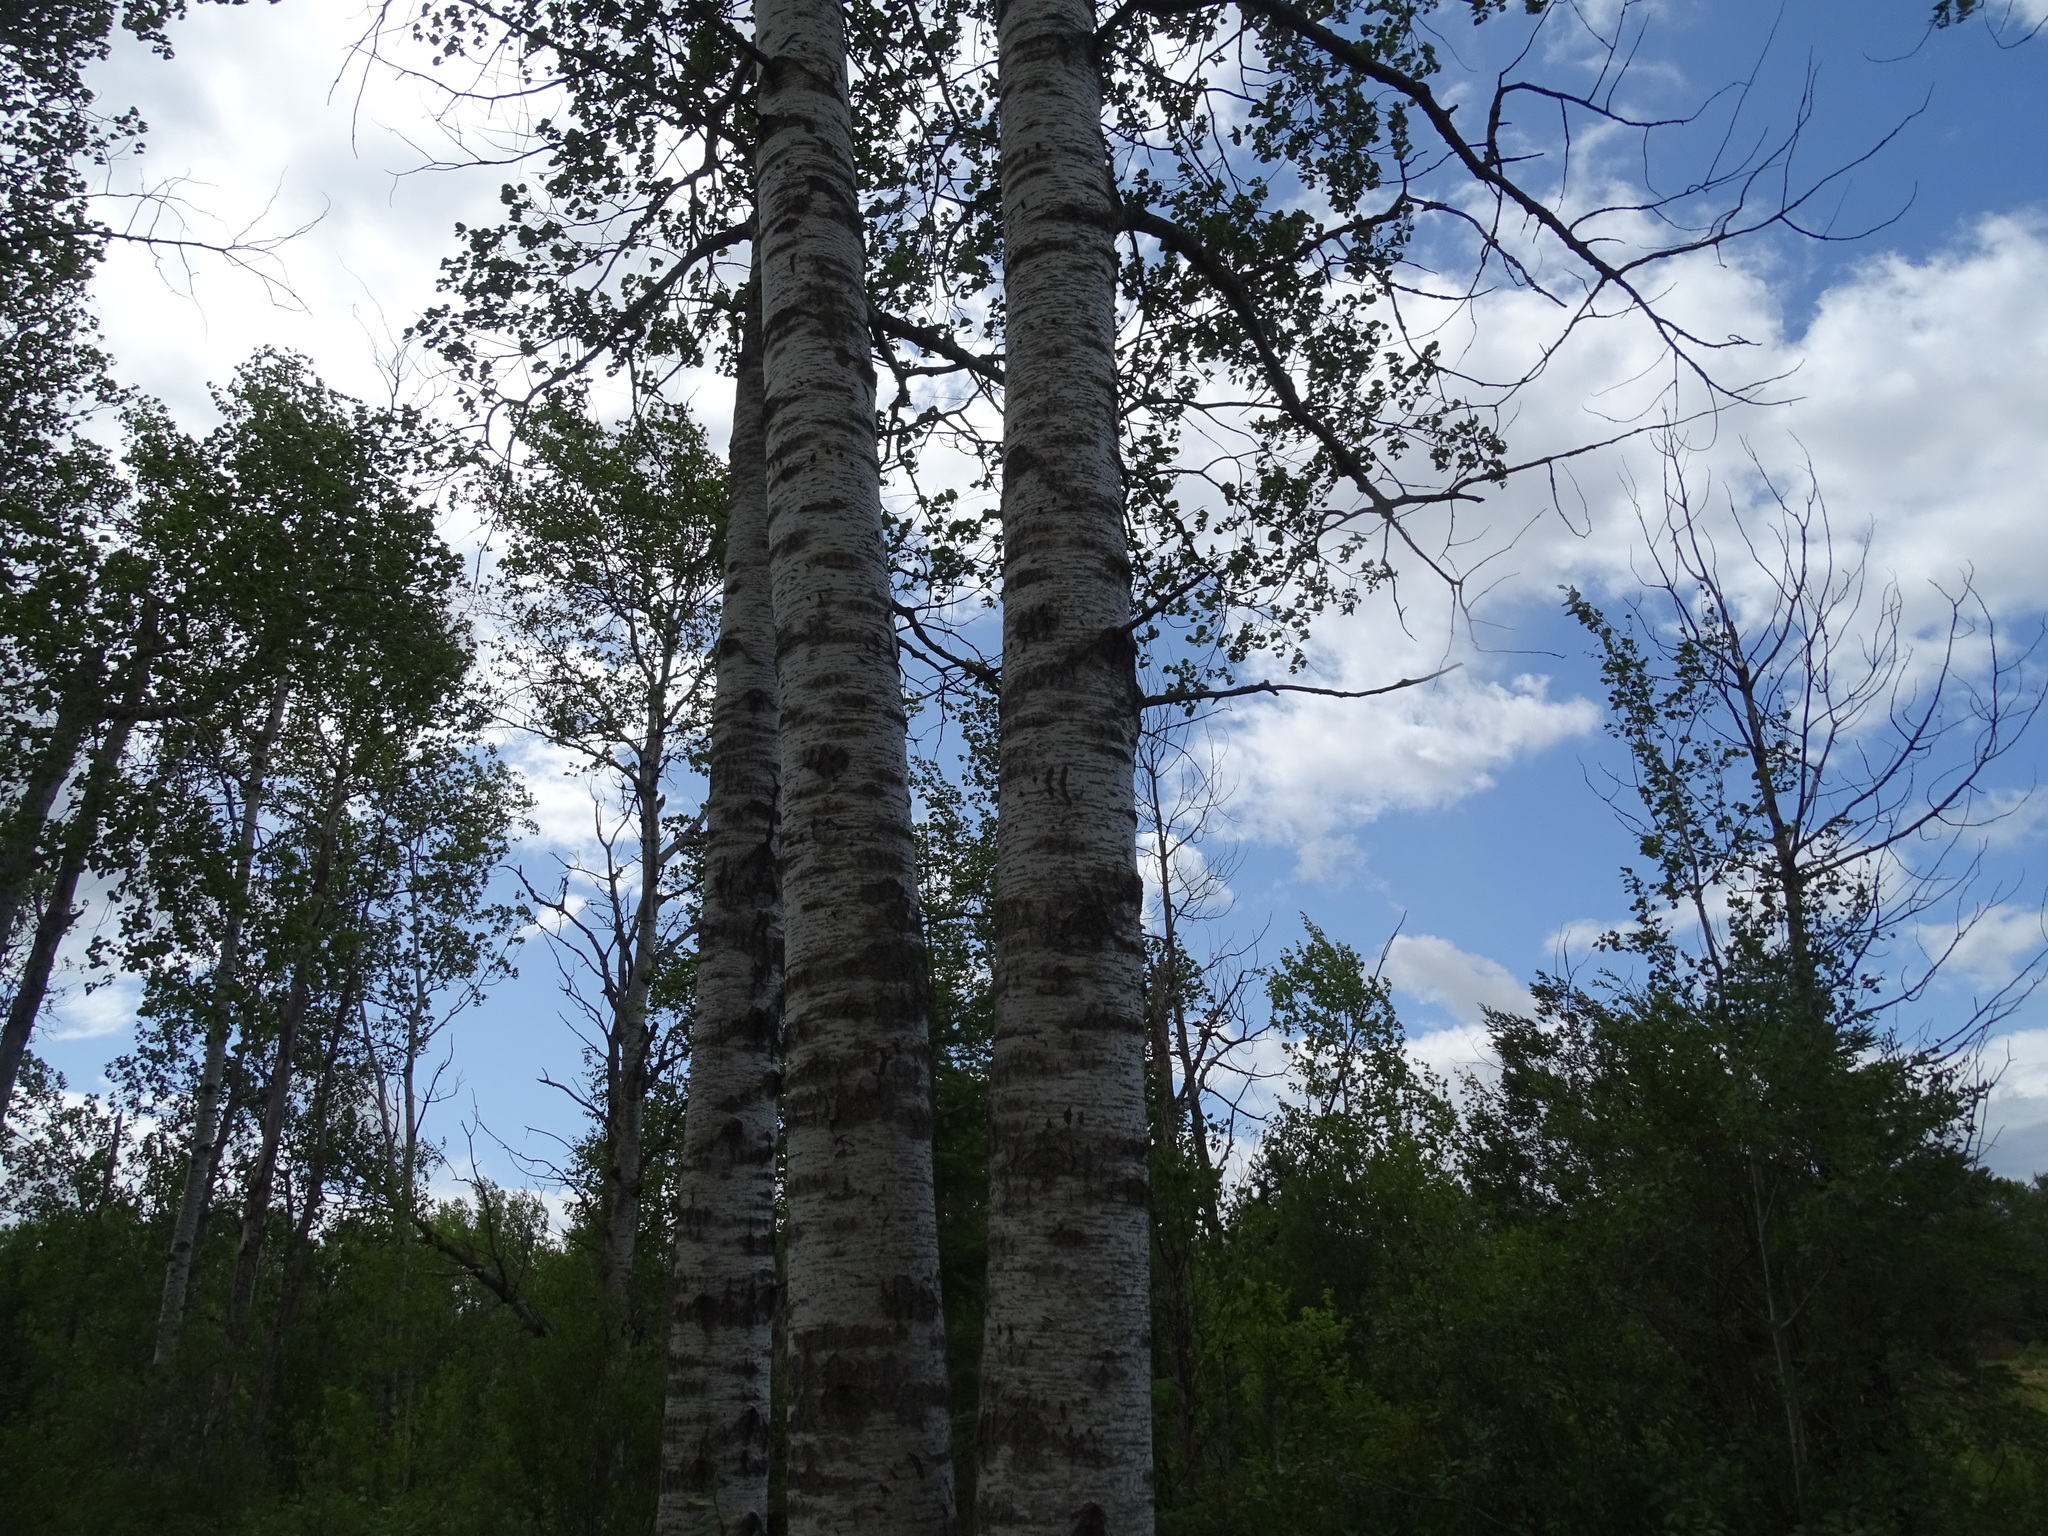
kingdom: Animalia
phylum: Chordata
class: Mammalia
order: Carnivora
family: Ursidae
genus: Ursus
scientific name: Ursus americanus
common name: American black bear
